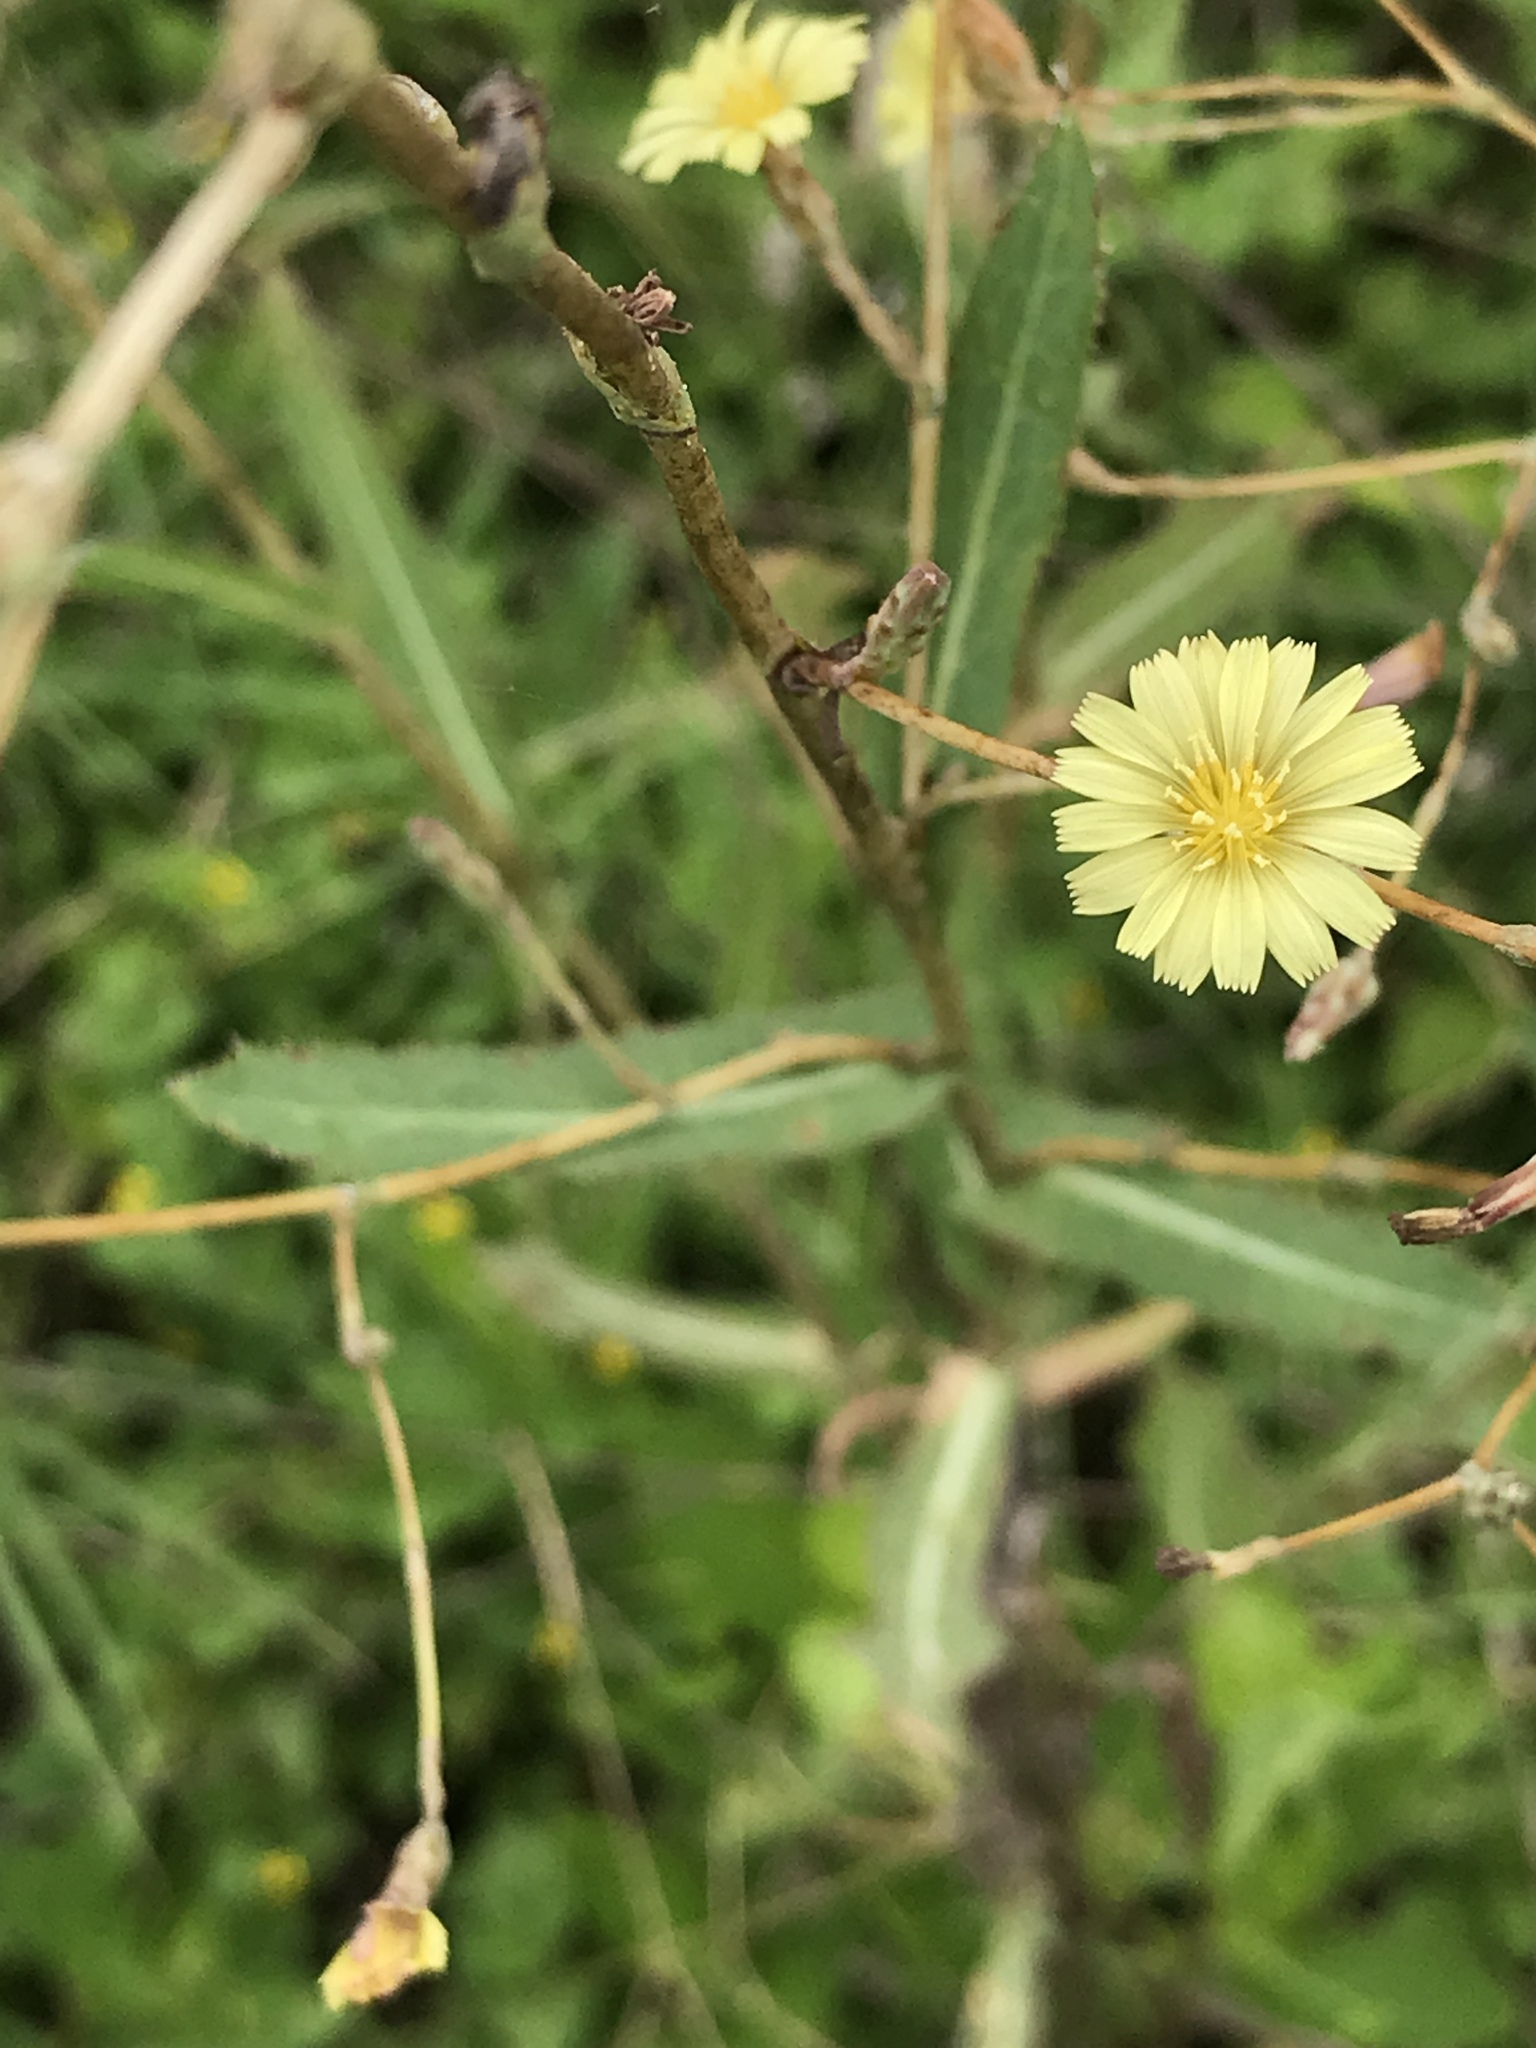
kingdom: Plantae
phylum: Tracheophyta
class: Magnoliopsida
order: Asterales
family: Asteraceae
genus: Lactuca
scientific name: Lactuca serriola
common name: Prickly lettuce
